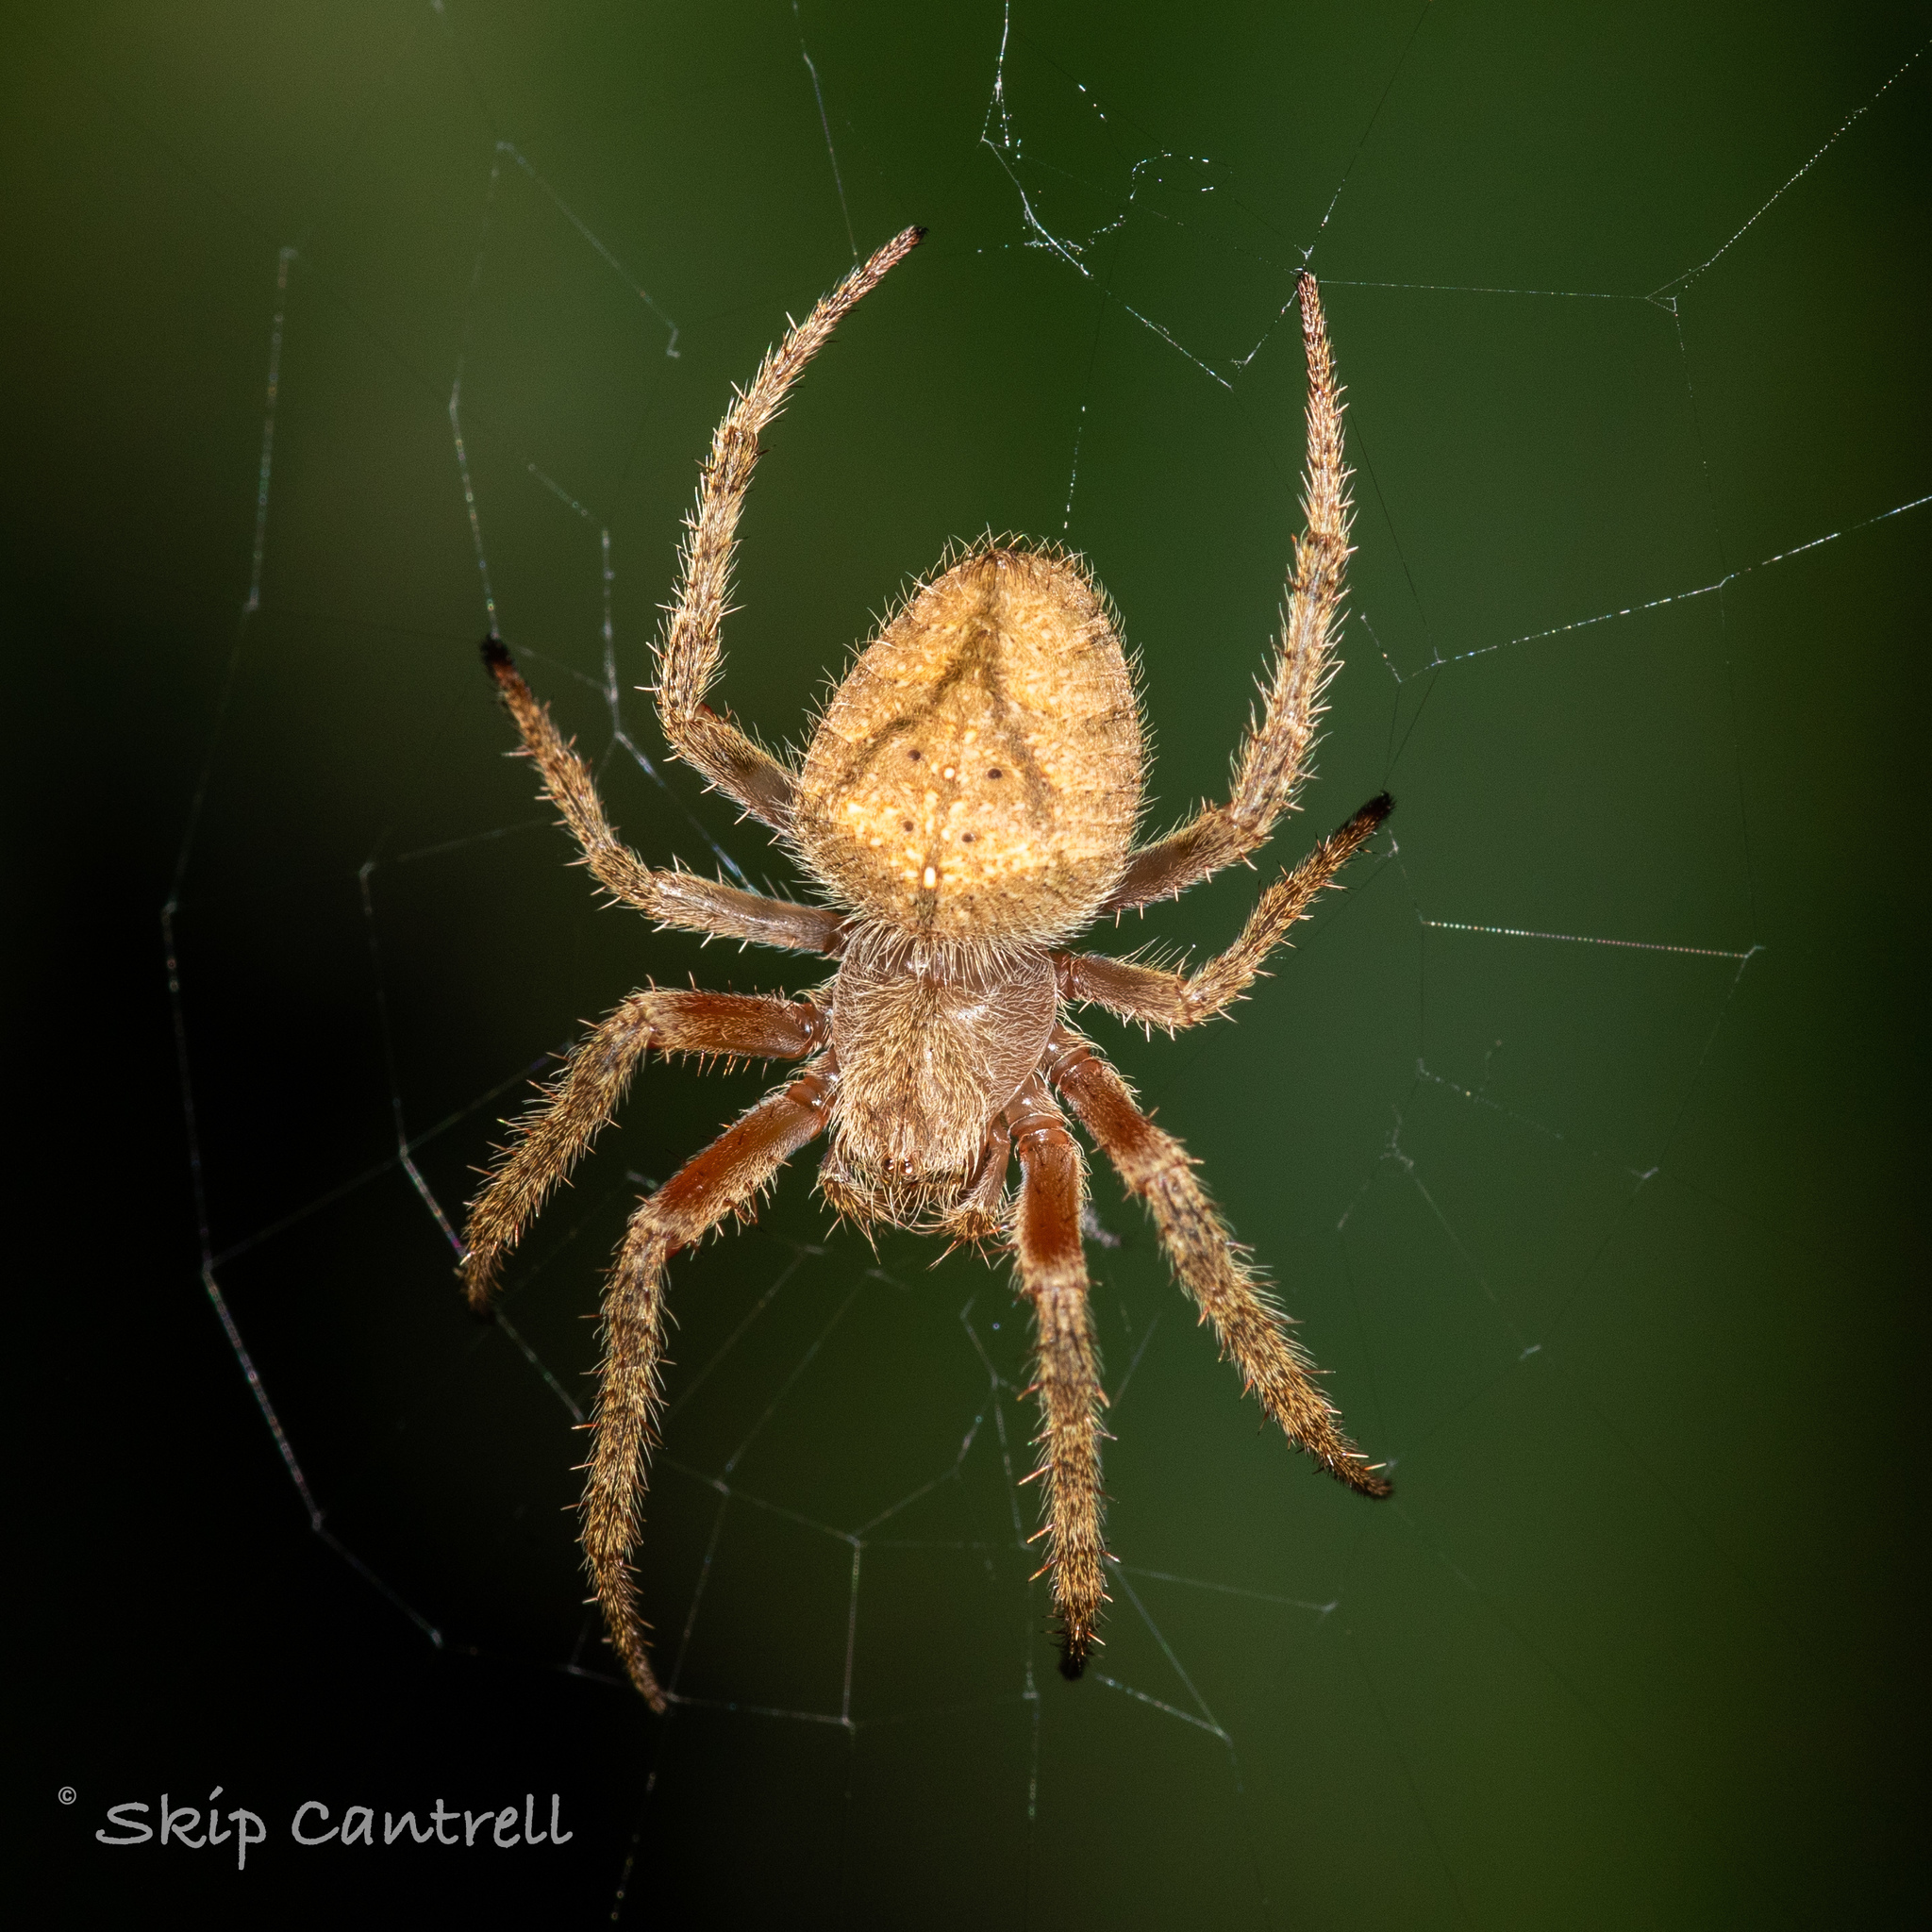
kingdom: Animalia
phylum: Arthropoda
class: Arachnida
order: Araneae
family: Araneidae
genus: Eriophora
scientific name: Eriophora edax
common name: Orb weavers
